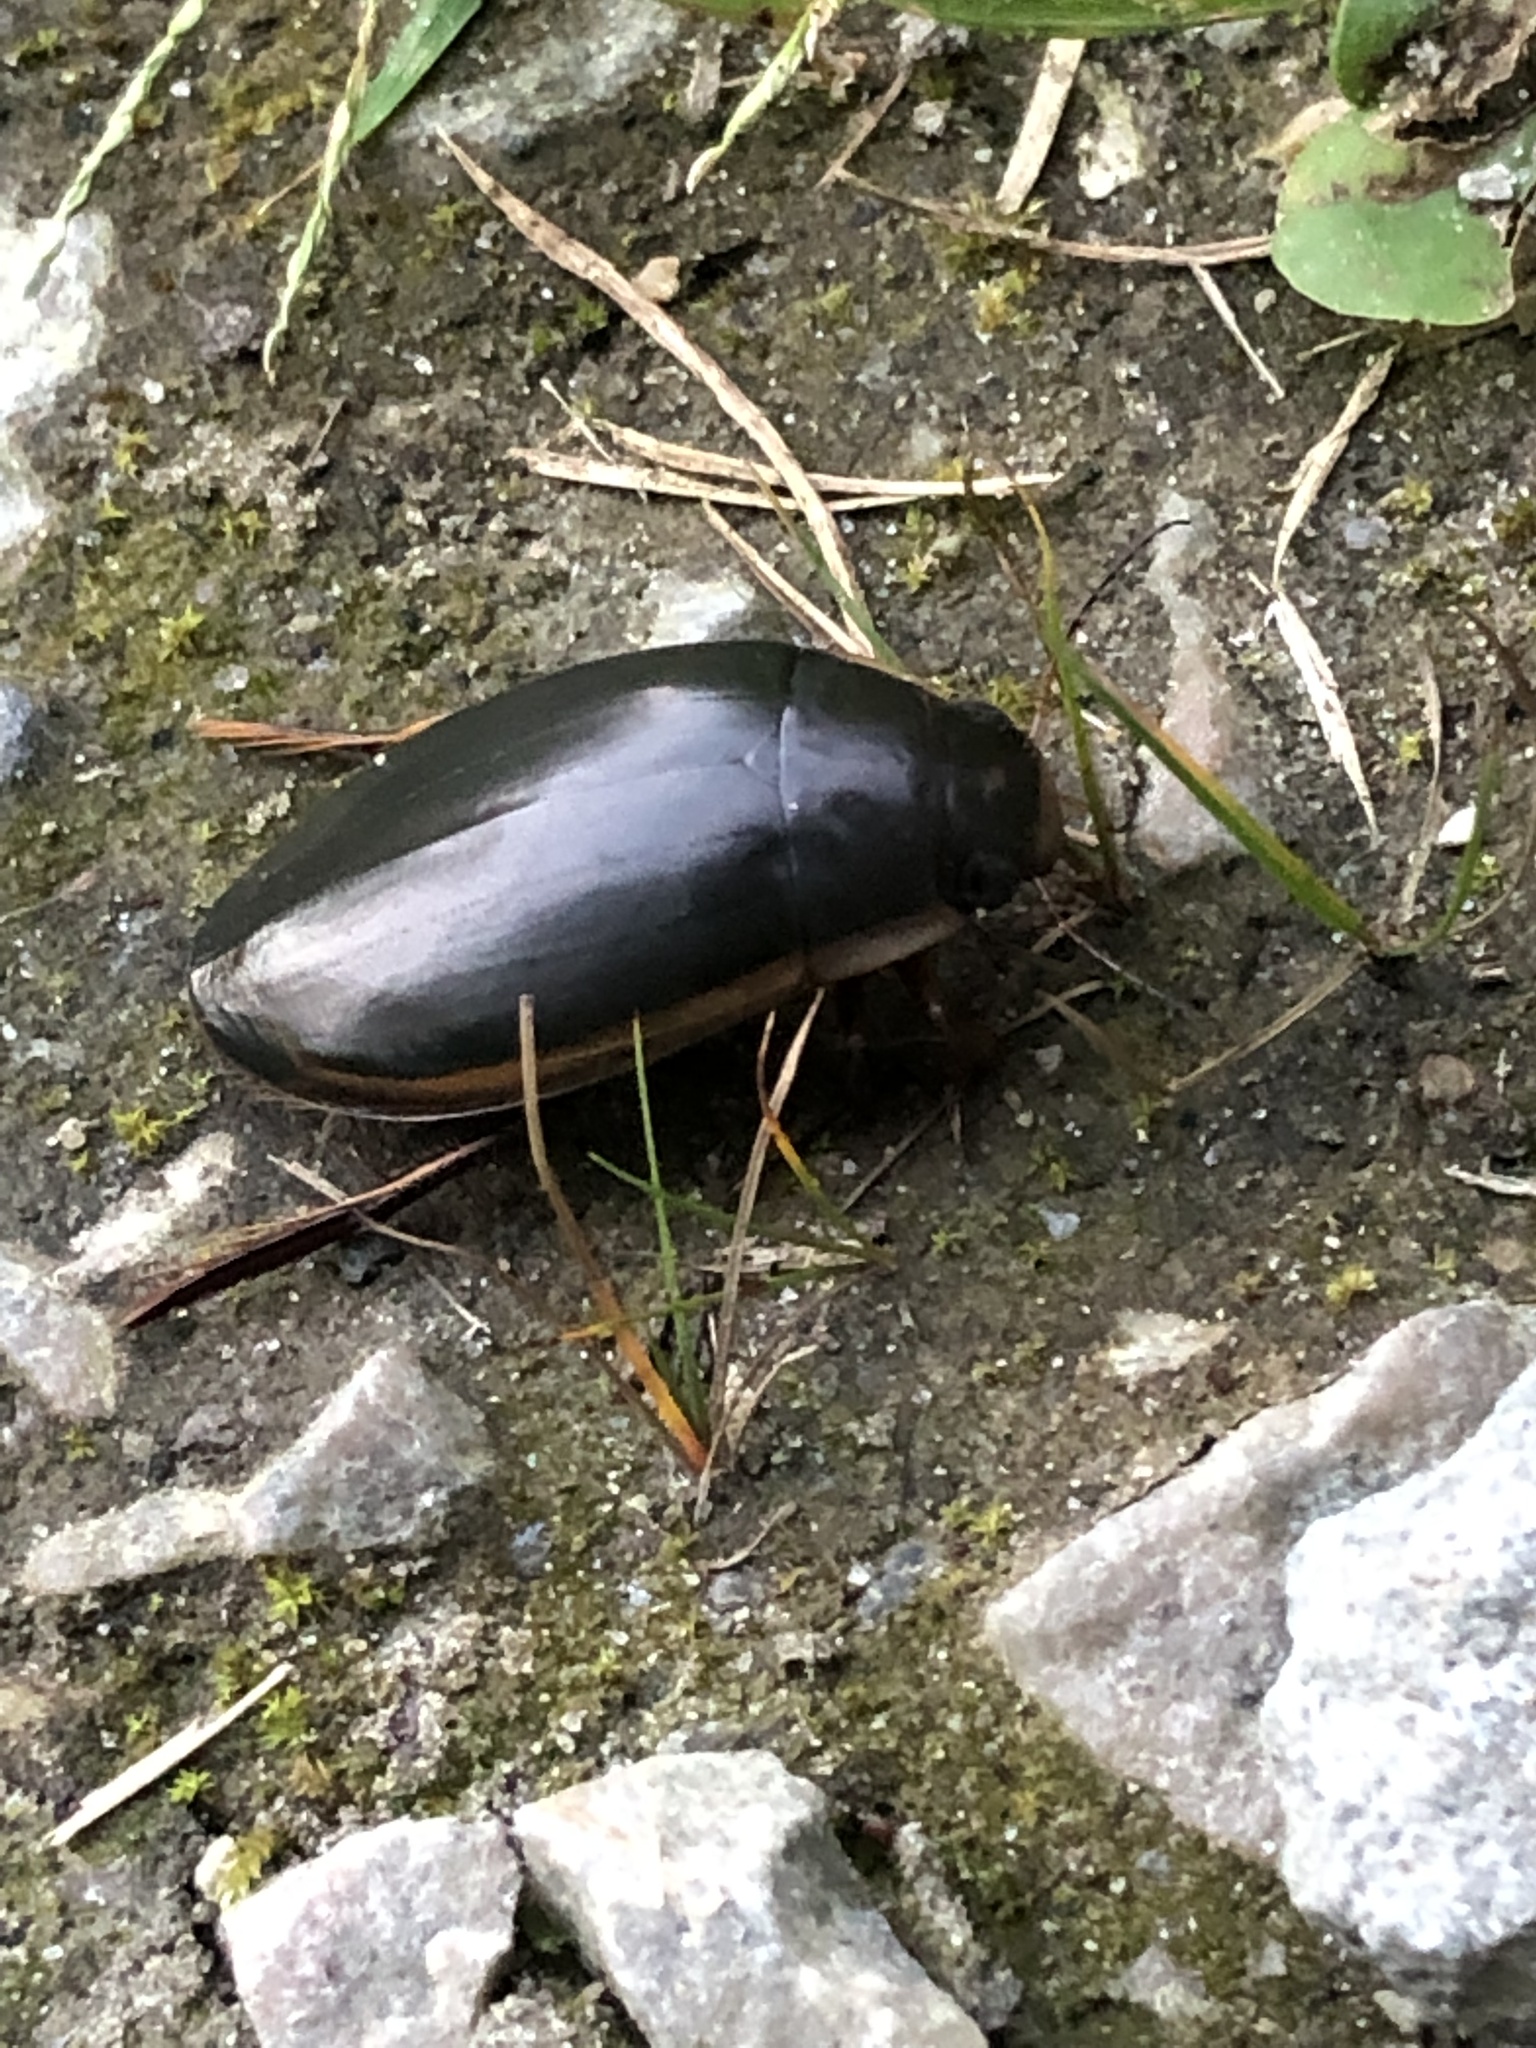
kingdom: Animalia
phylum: Arthropoda
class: Insecta
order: Coleoptera
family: Dytiscidae
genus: Dytiscus
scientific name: Dytiscus verticalis
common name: Vertical diving beetle
